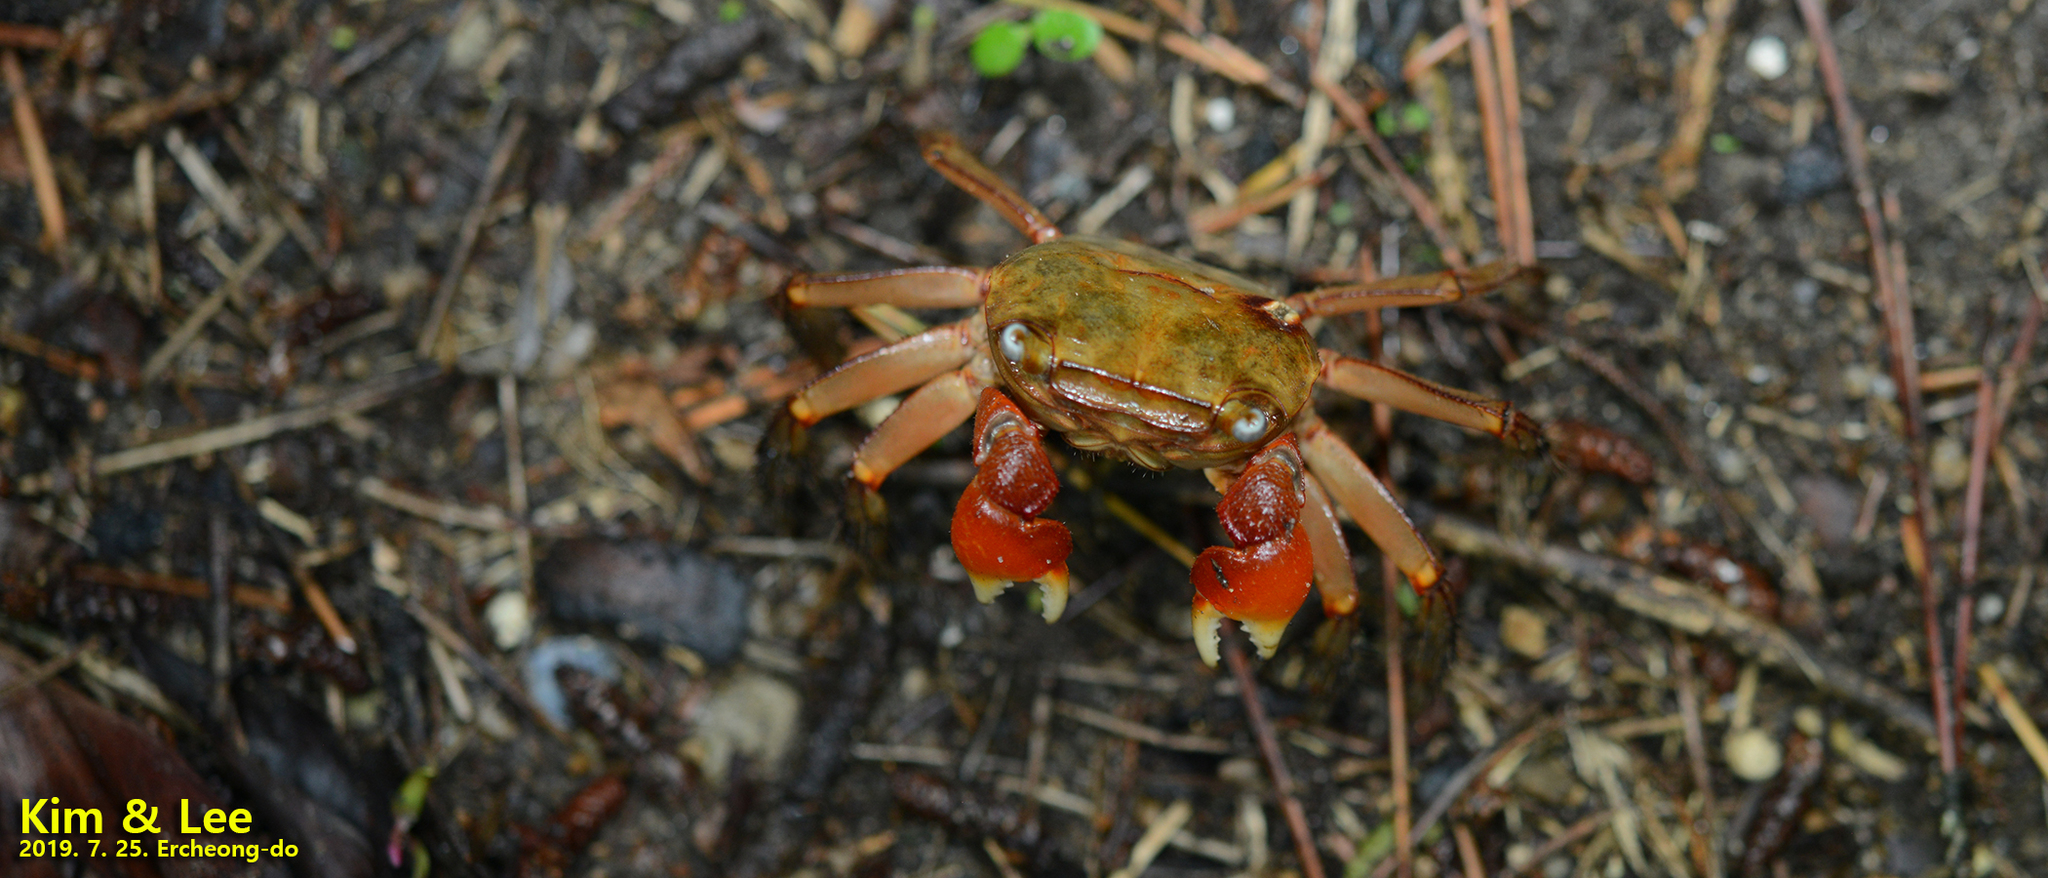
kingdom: Animalia
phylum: Arthropoda
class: Malacostraca
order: Decapoda
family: Sesarmidae
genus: Chiromantes
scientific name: Chiromantes haematocheir
